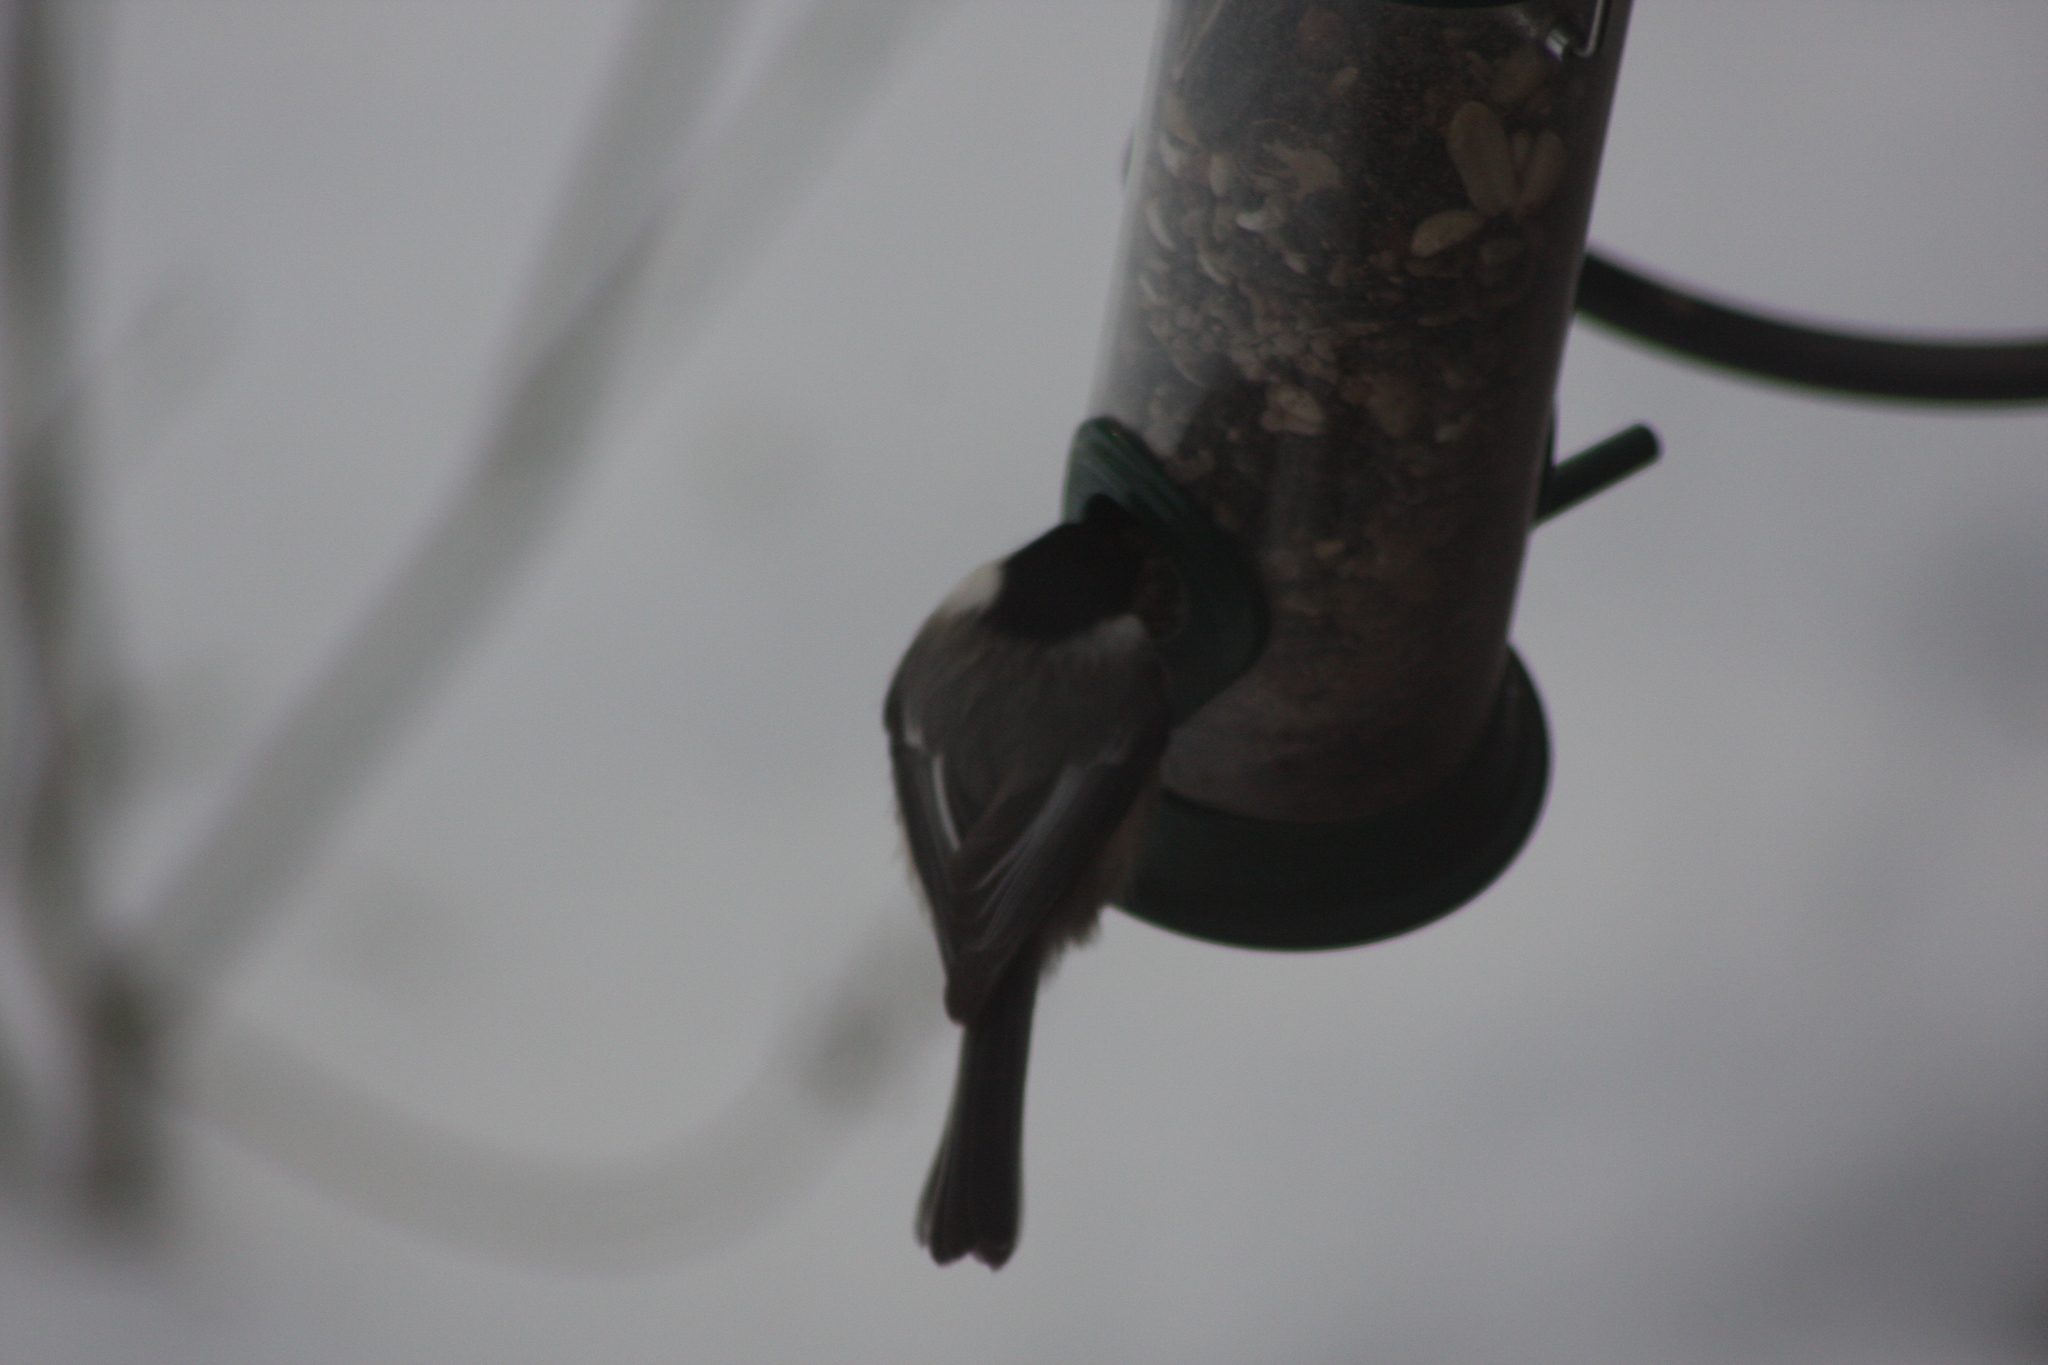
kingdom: Animalia
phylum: Chordata
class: Aves
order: Passeriformes
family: Paridae
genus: Poecile
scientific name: Poecile atricapillus
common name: Black-capped chickadee
